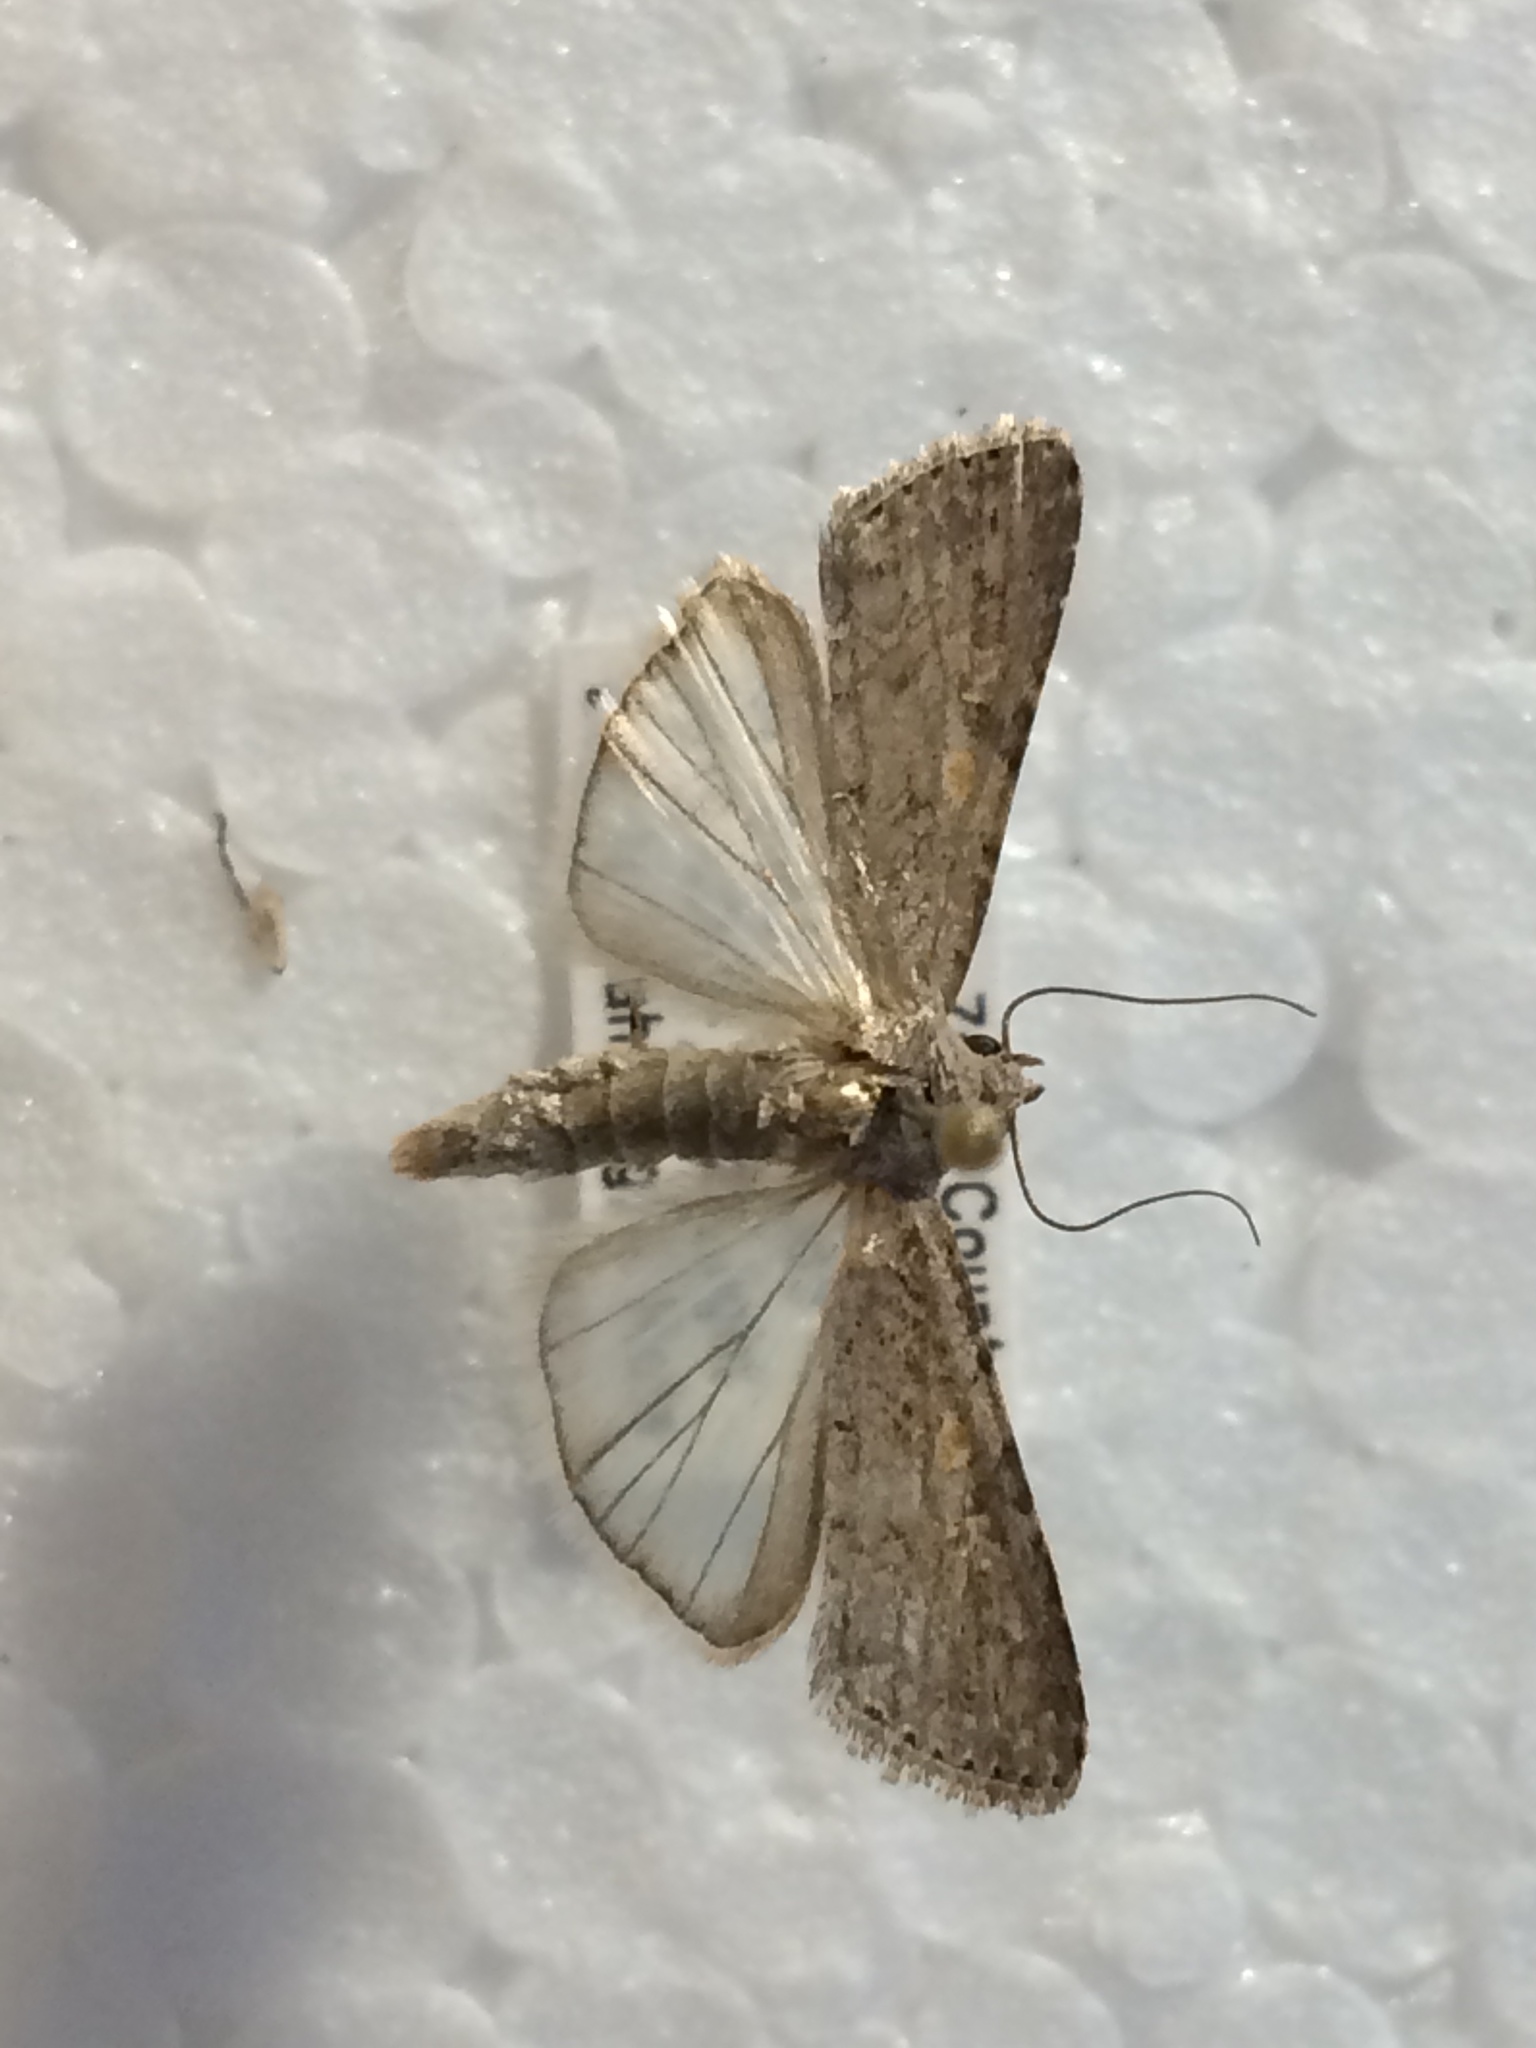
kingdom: Animalia
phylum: Arthropoda
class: Insecta
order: Lepidoptera
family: Noctuidae
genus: Spodoptera
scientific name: Spodoptera exigua
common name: Beet armyworm
